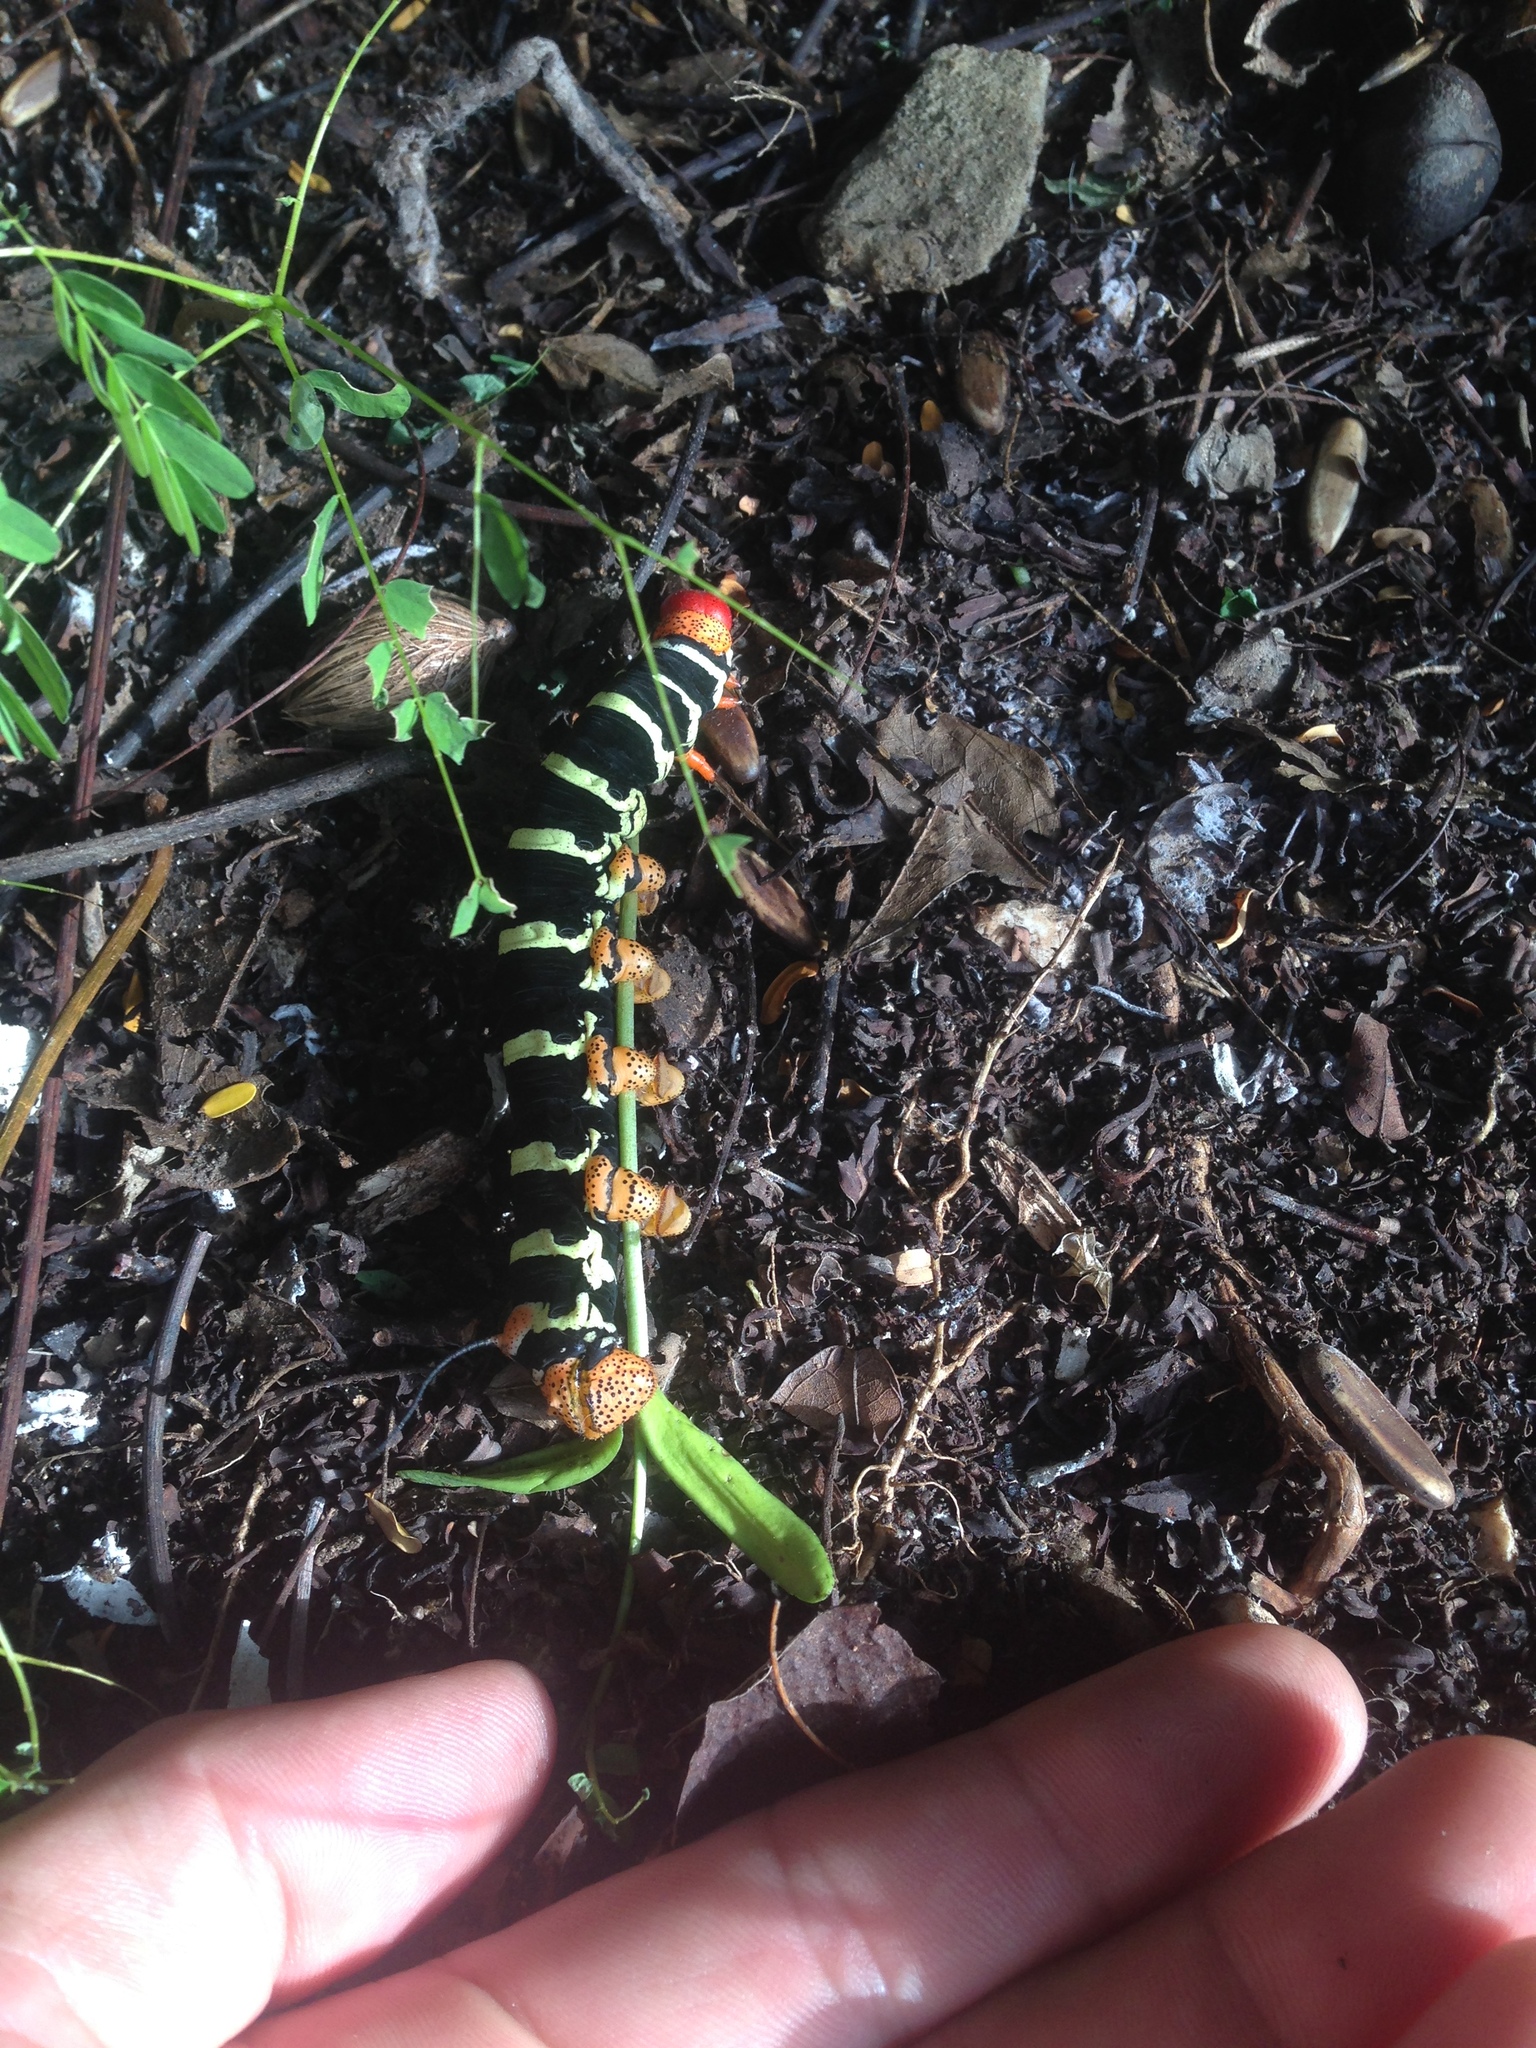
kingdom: Animalia
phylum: Arthropoda
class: Insecta
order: Lepidoptera
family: Sphingidae
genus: Pseudosphinx
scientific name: Pseudosphinx tetrio
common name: Tetrio sphinx
